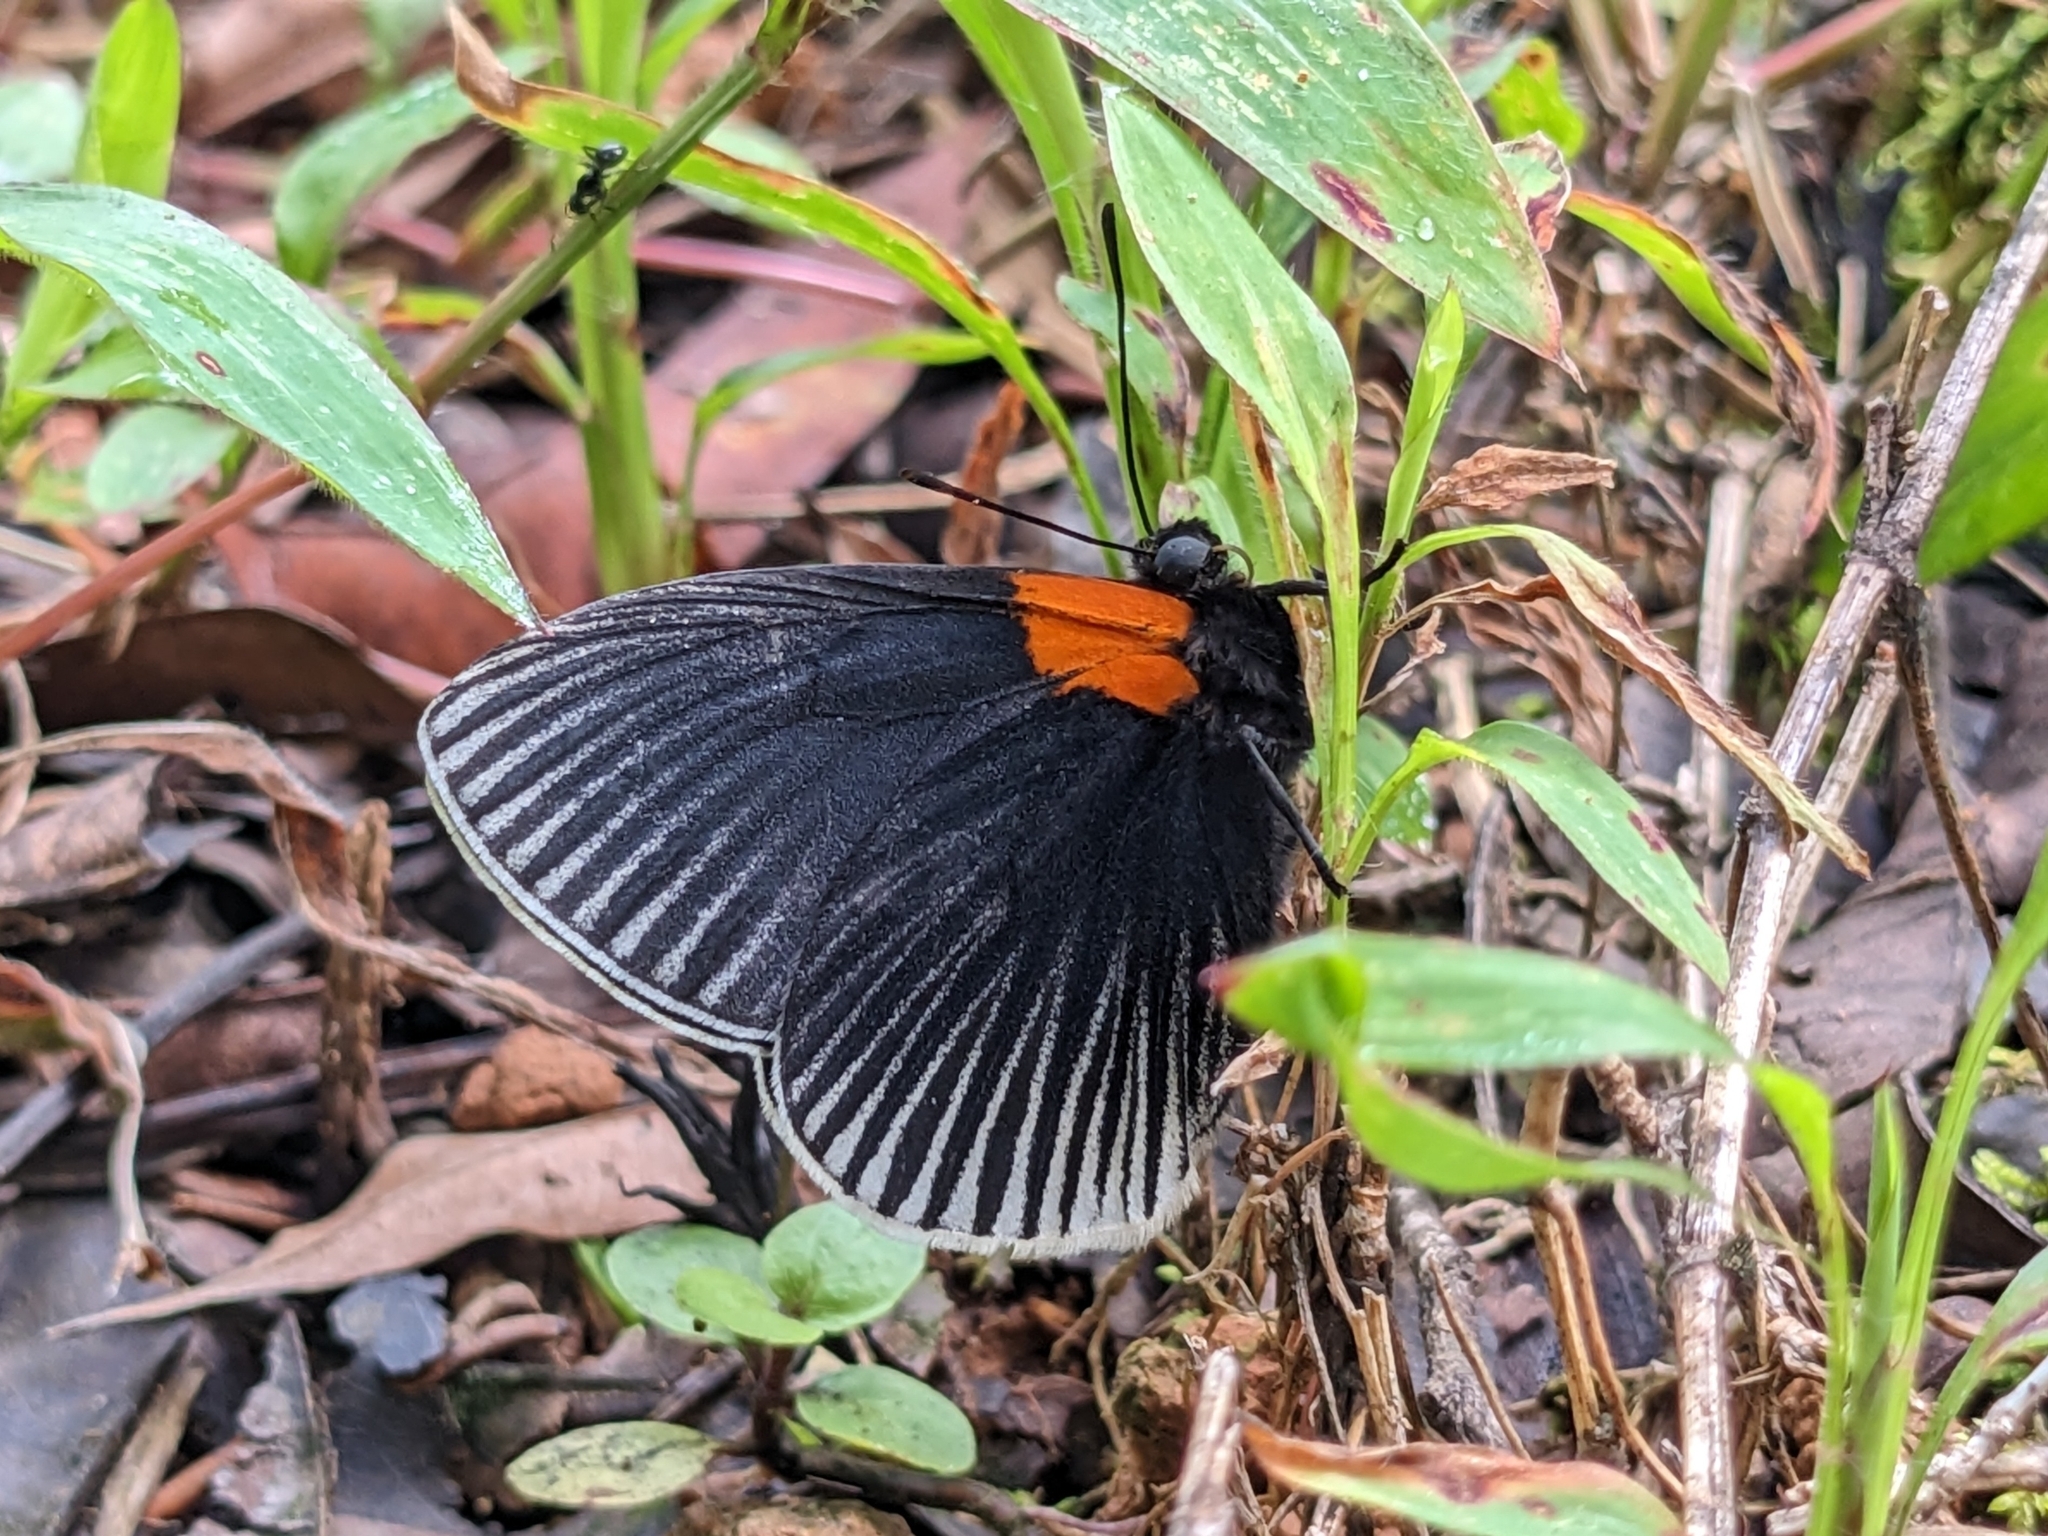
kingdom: Animalia
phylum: Arthropoda
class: Insecta
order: Lepidoptera
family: Riodinidae
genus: Hades
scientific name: Hades noctula
